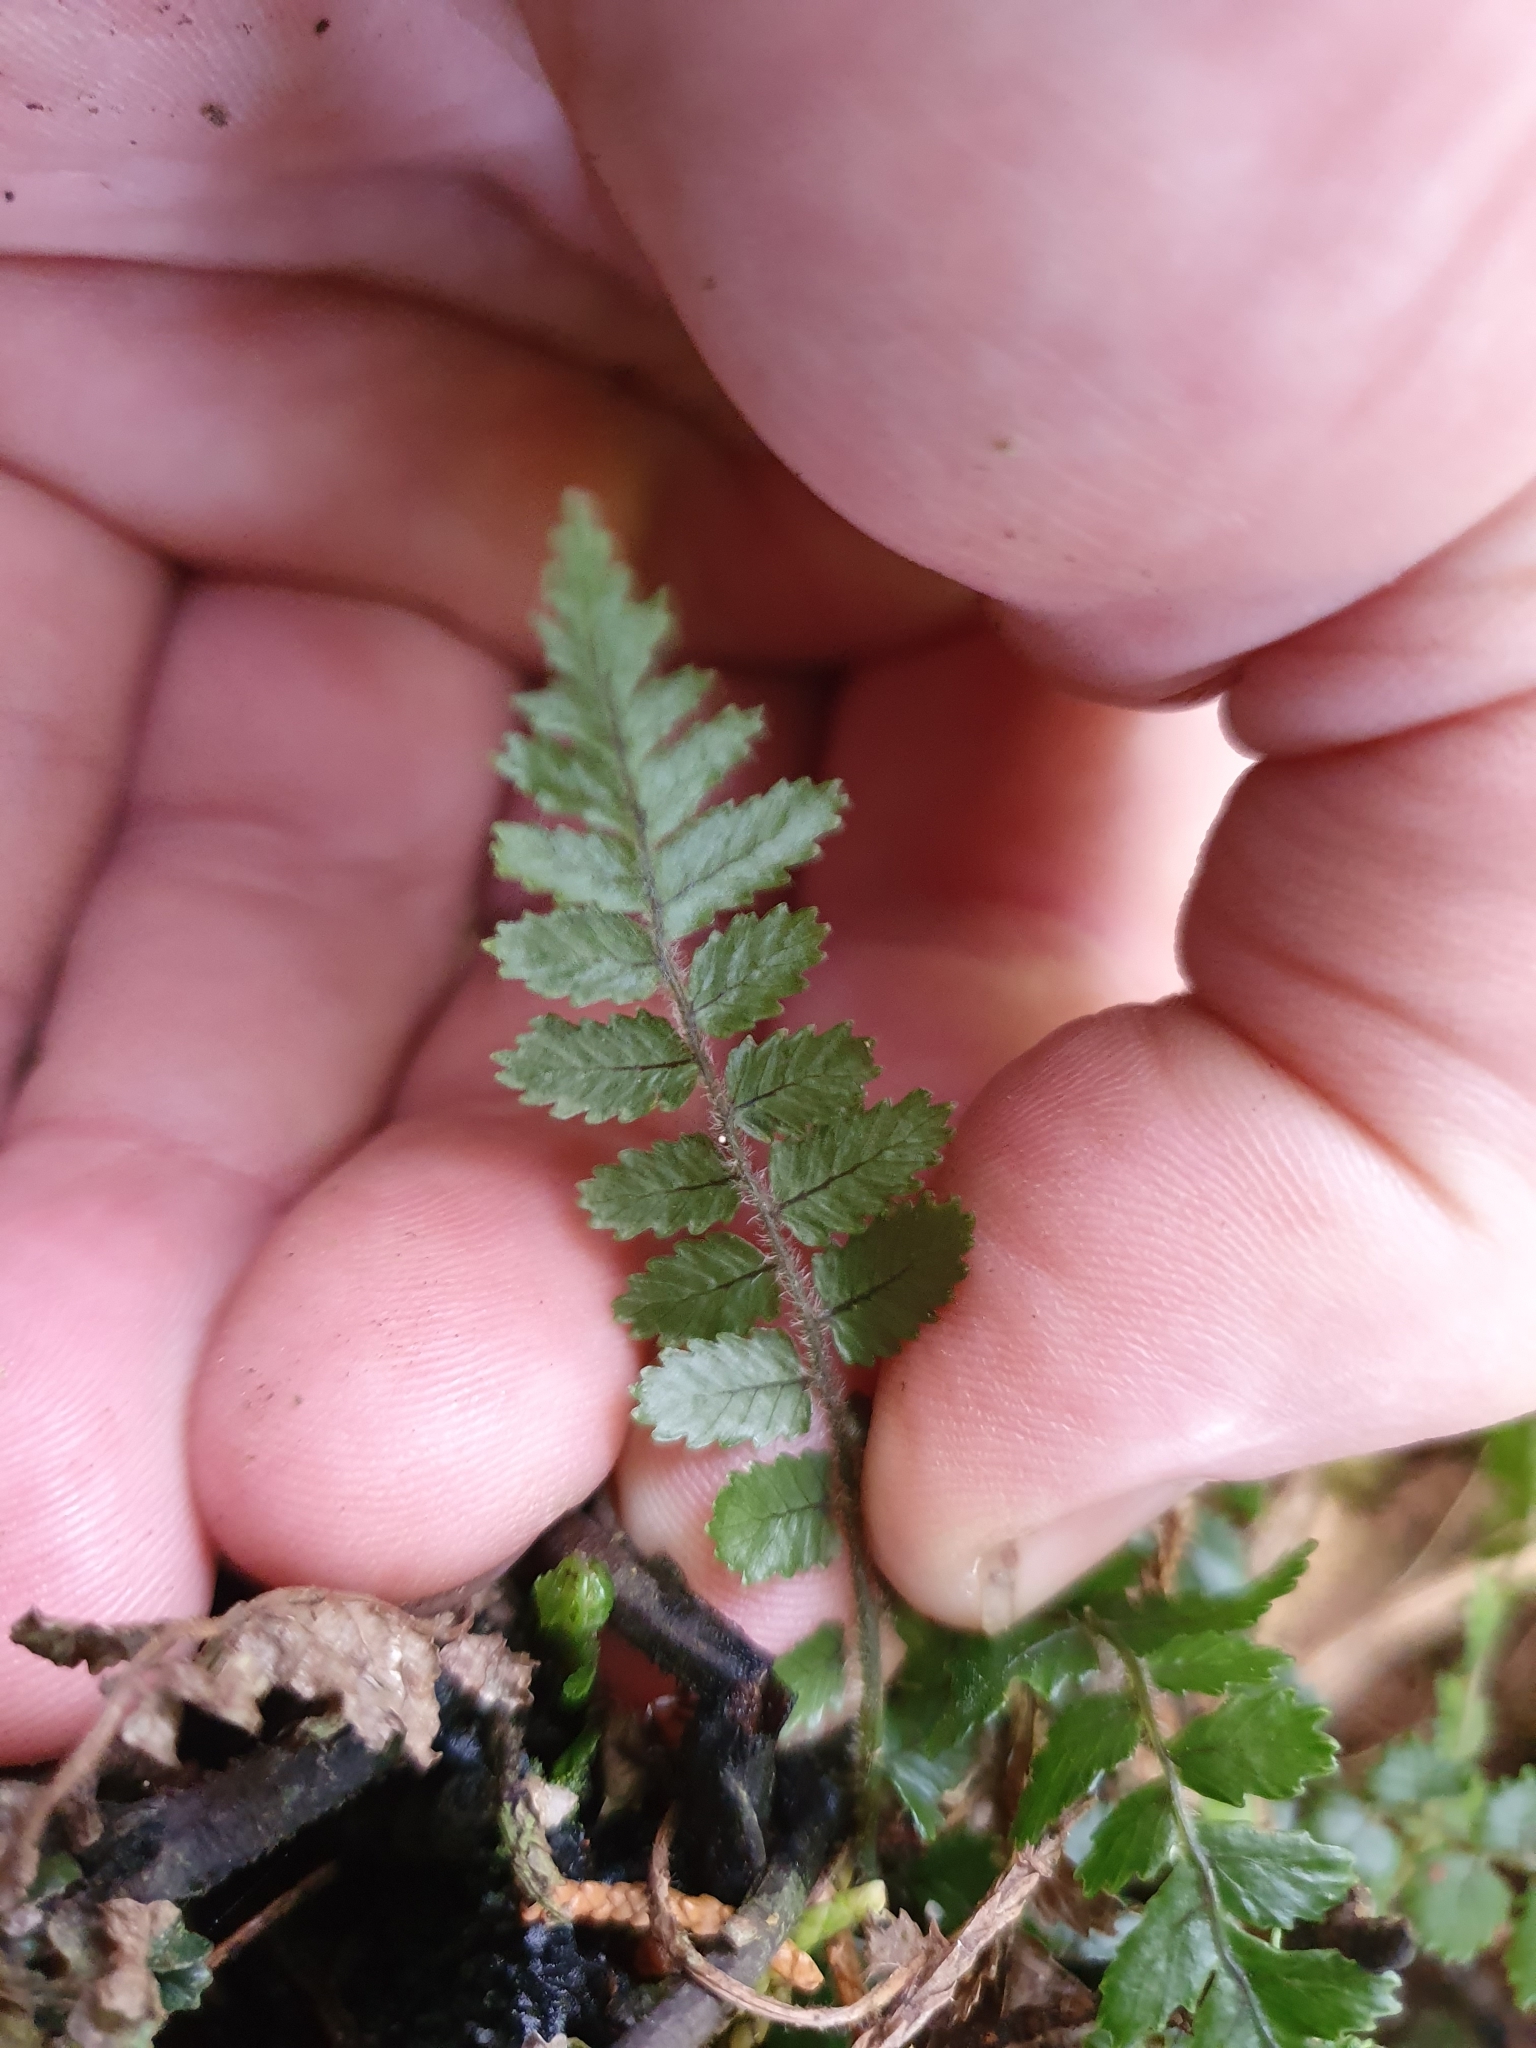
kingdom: Plantae
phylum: Tracheophyta
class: Polypodiopsida
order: Polypodiales
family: Blechnaceae
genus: Icarus
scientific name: Icarus filiformis
